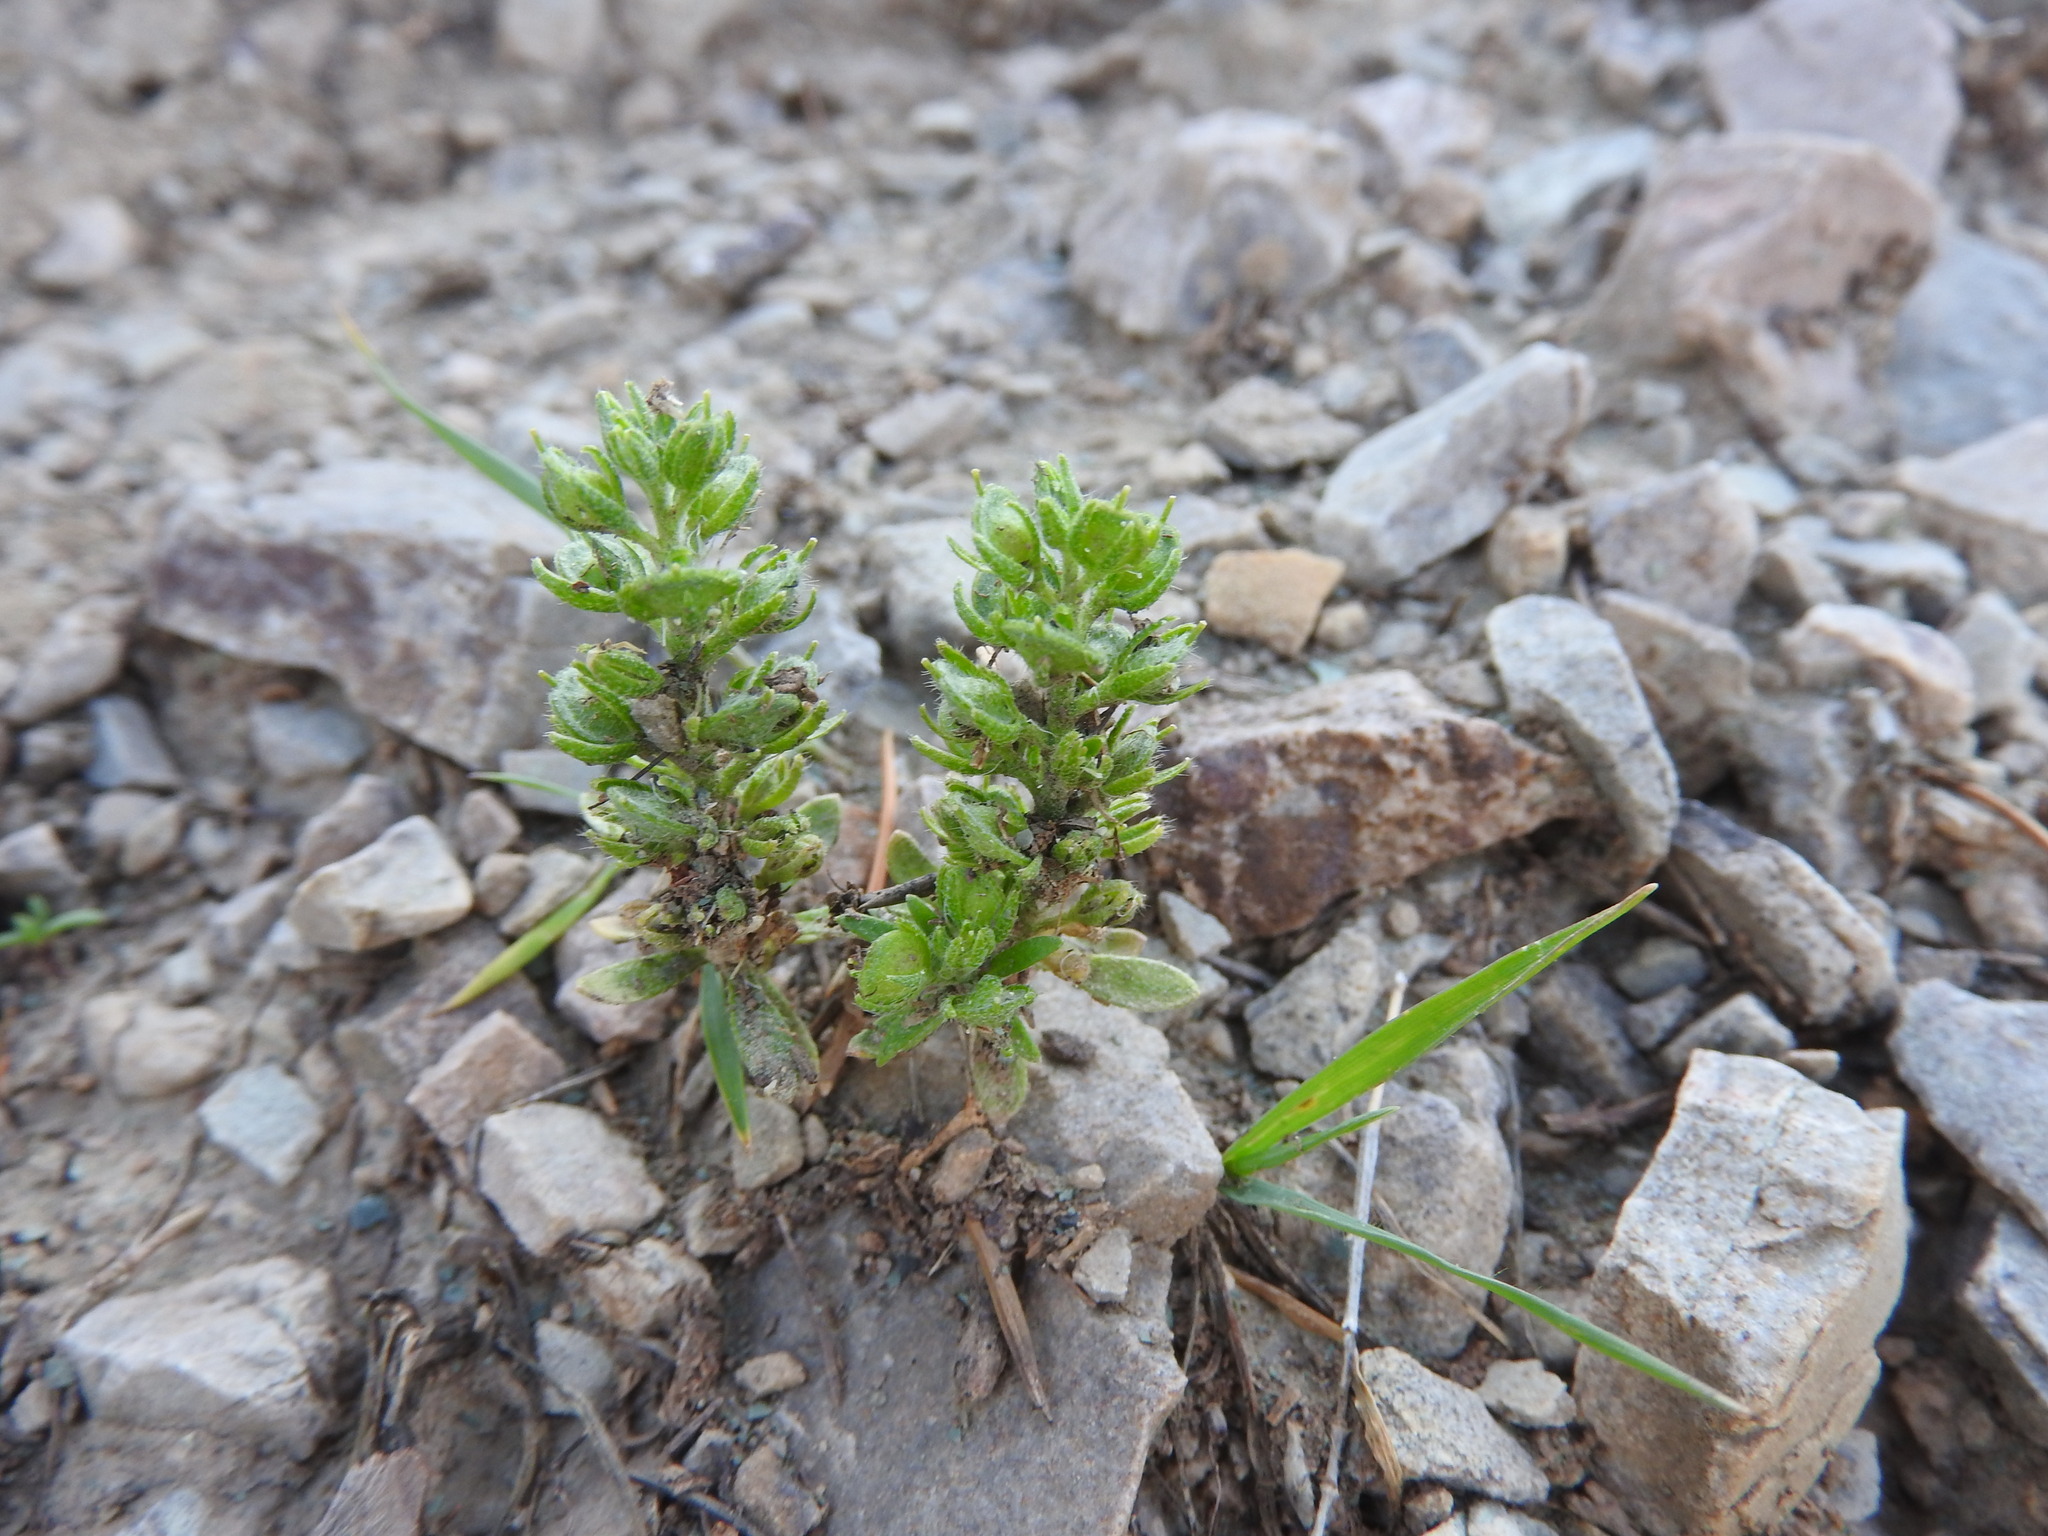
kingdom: Plantae
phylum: Tracheophyta
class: Magnoliopsida
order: Brassicales
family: Brassicaceae
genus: Alyssum
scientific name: Alyssum granatense
